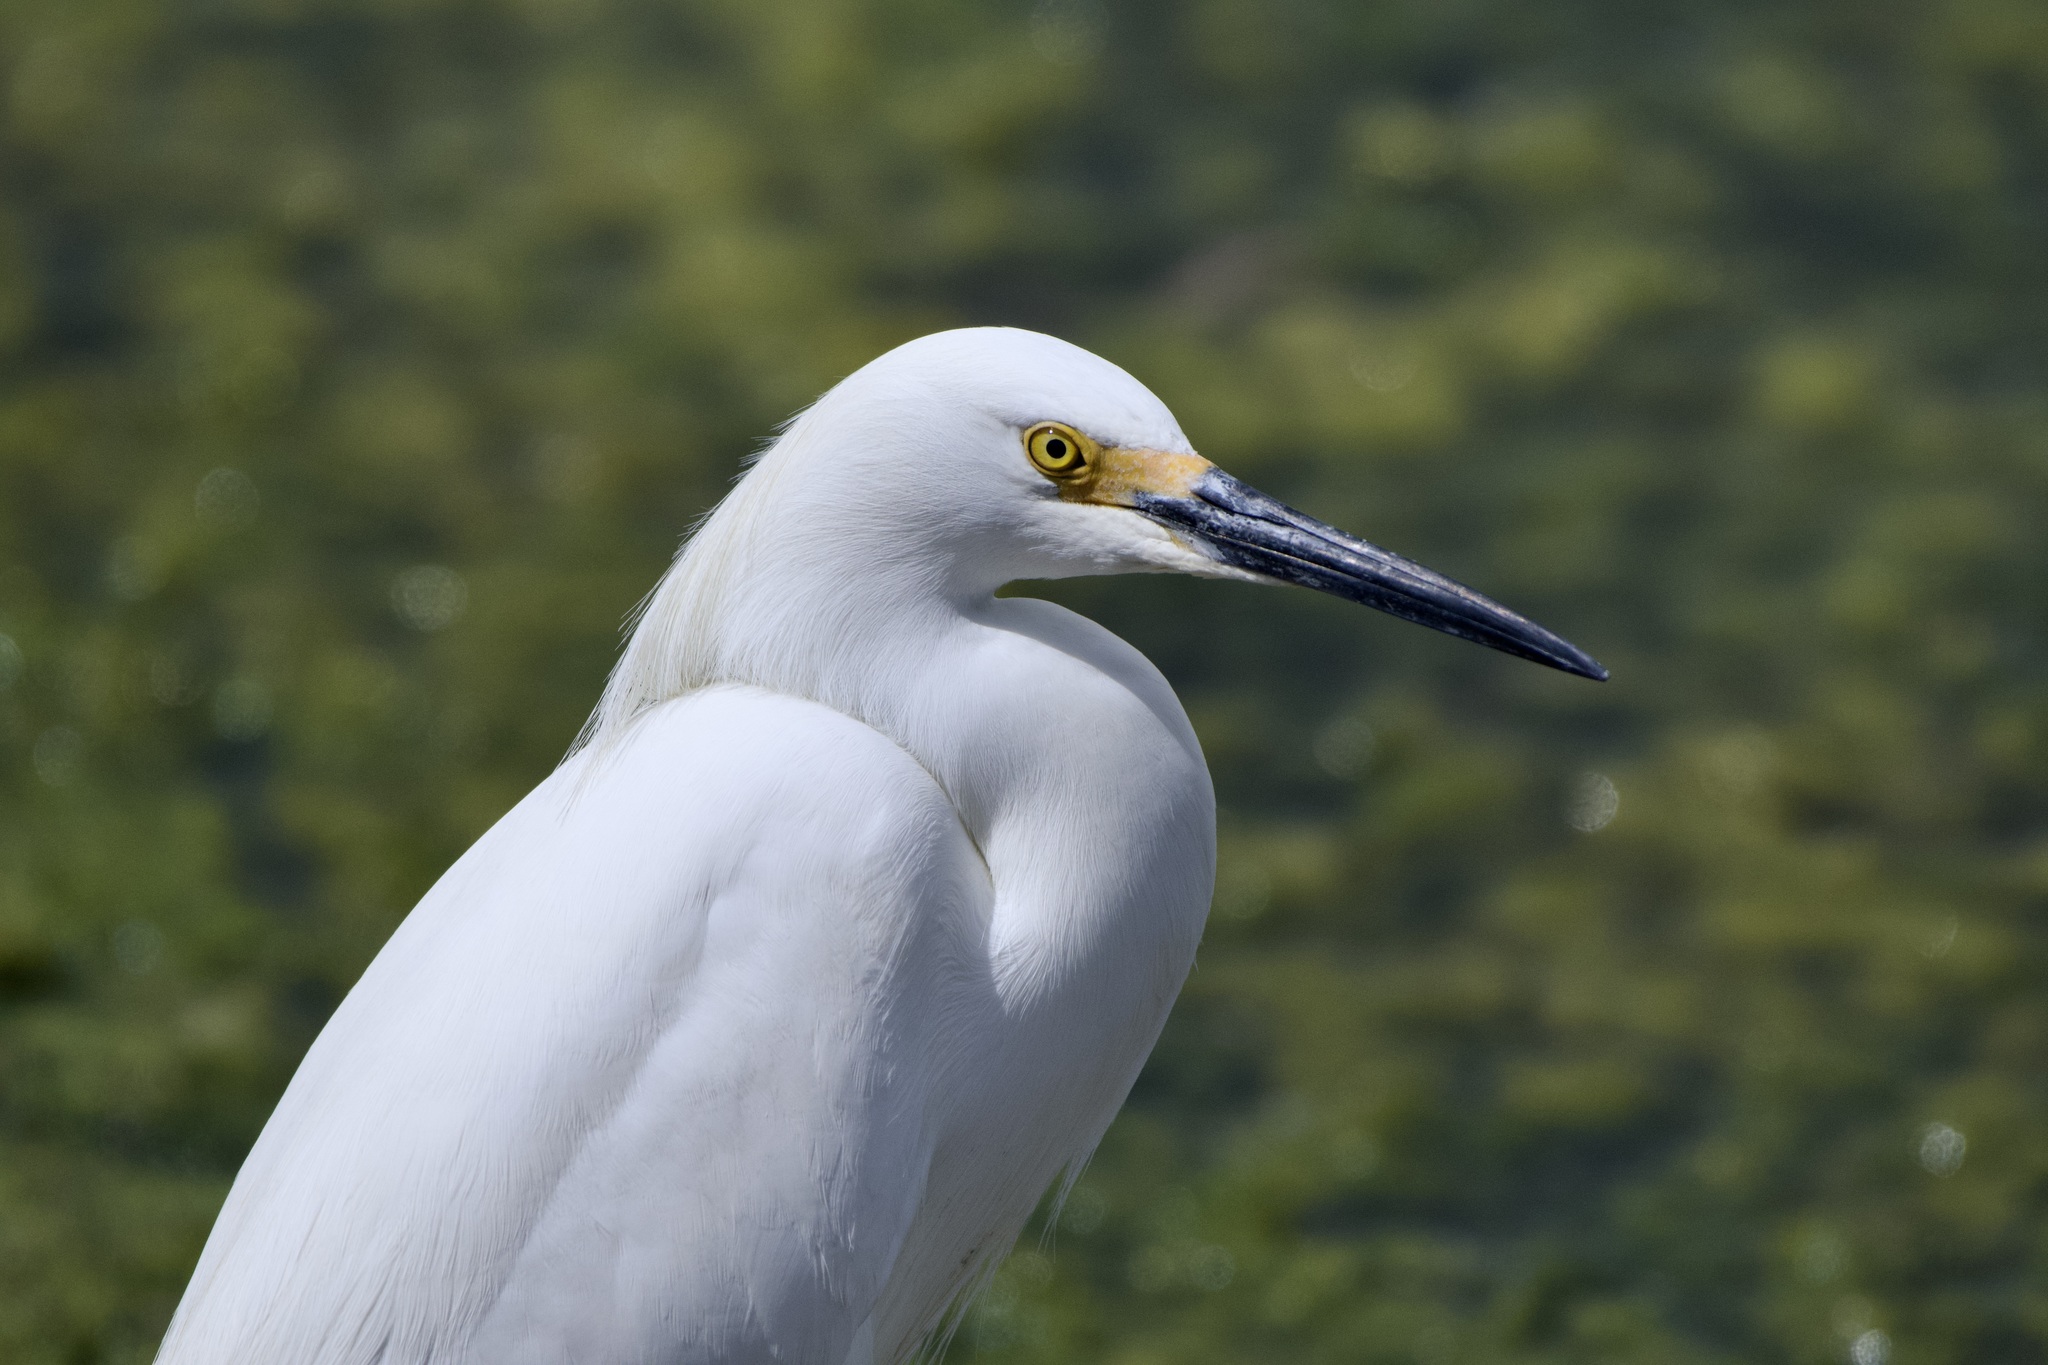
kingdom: Animalia
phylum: Chordata
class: Aves
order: Pelecaniformes
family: Ardeidae
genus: Egretta
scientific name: Egretta thula
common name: Snowy egret
